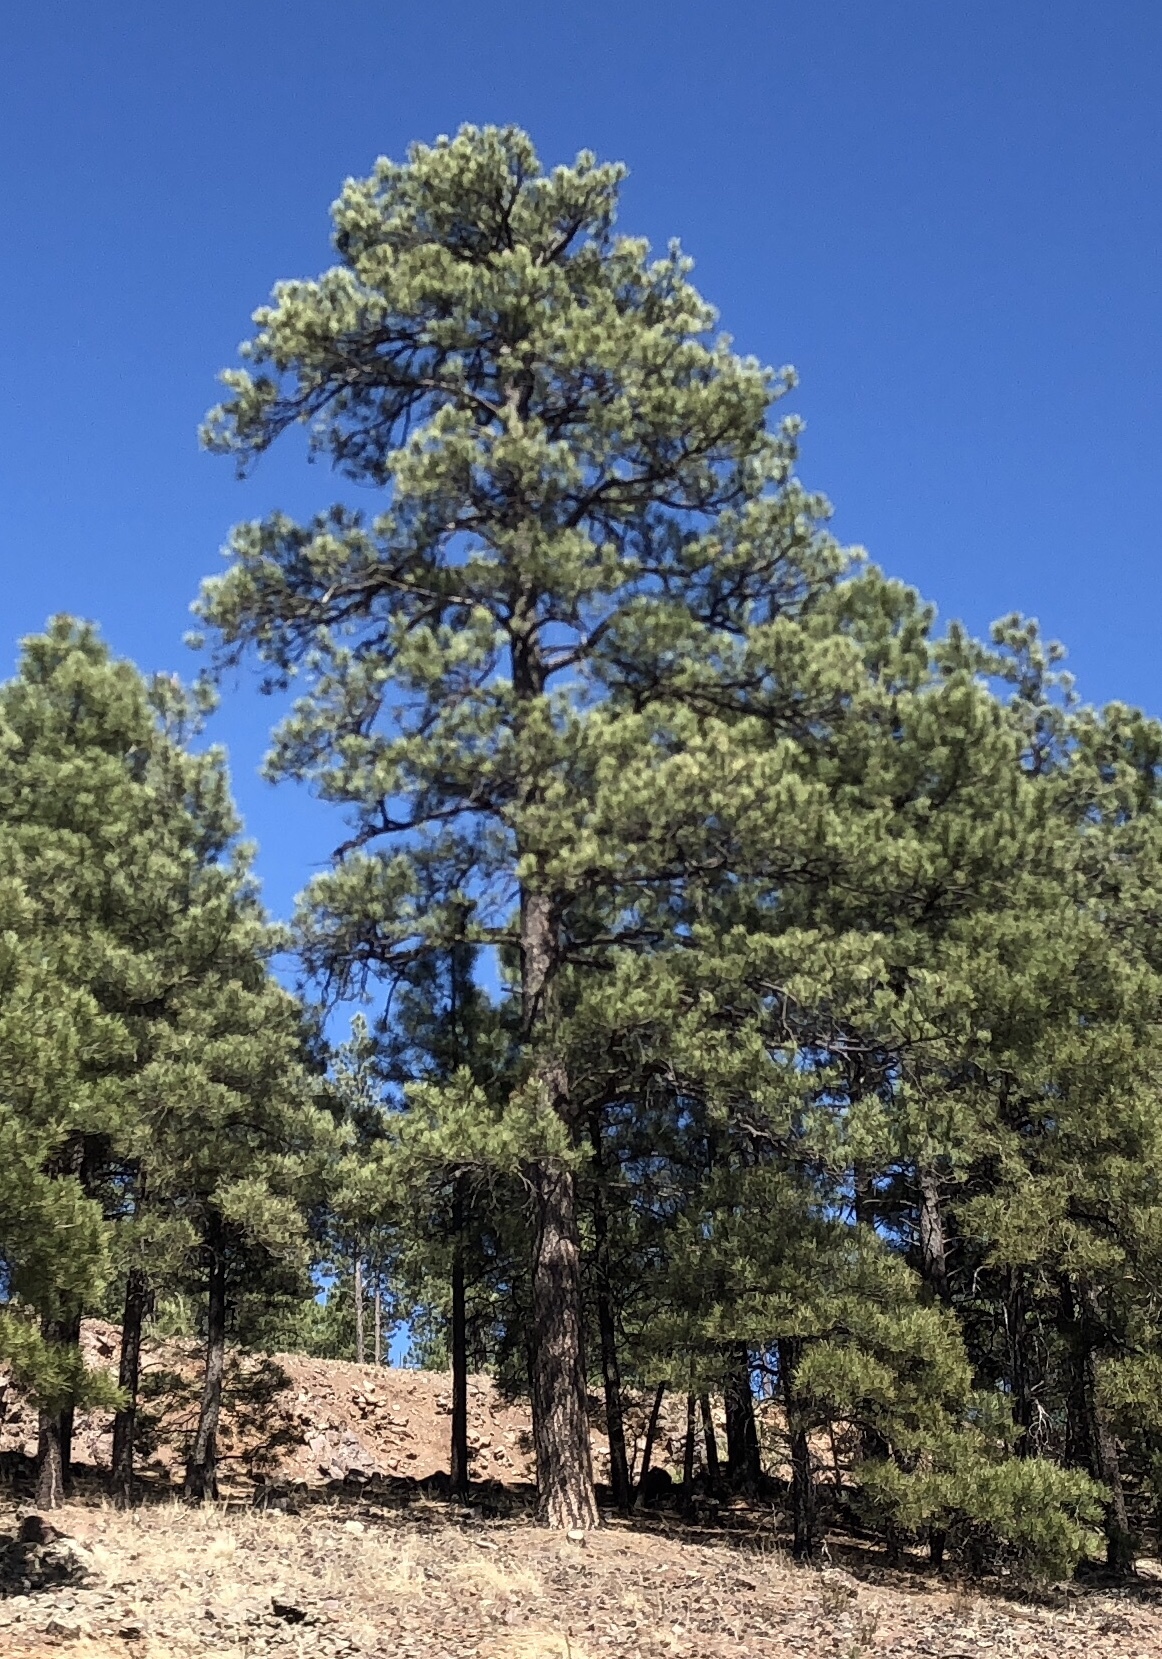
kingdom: Plantae
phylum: Tracheophyta
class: Pinopsida
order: Pinales
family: Pinaceae
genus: Pinus
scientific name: Pinus ponderosa
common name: Western yellow-pine
